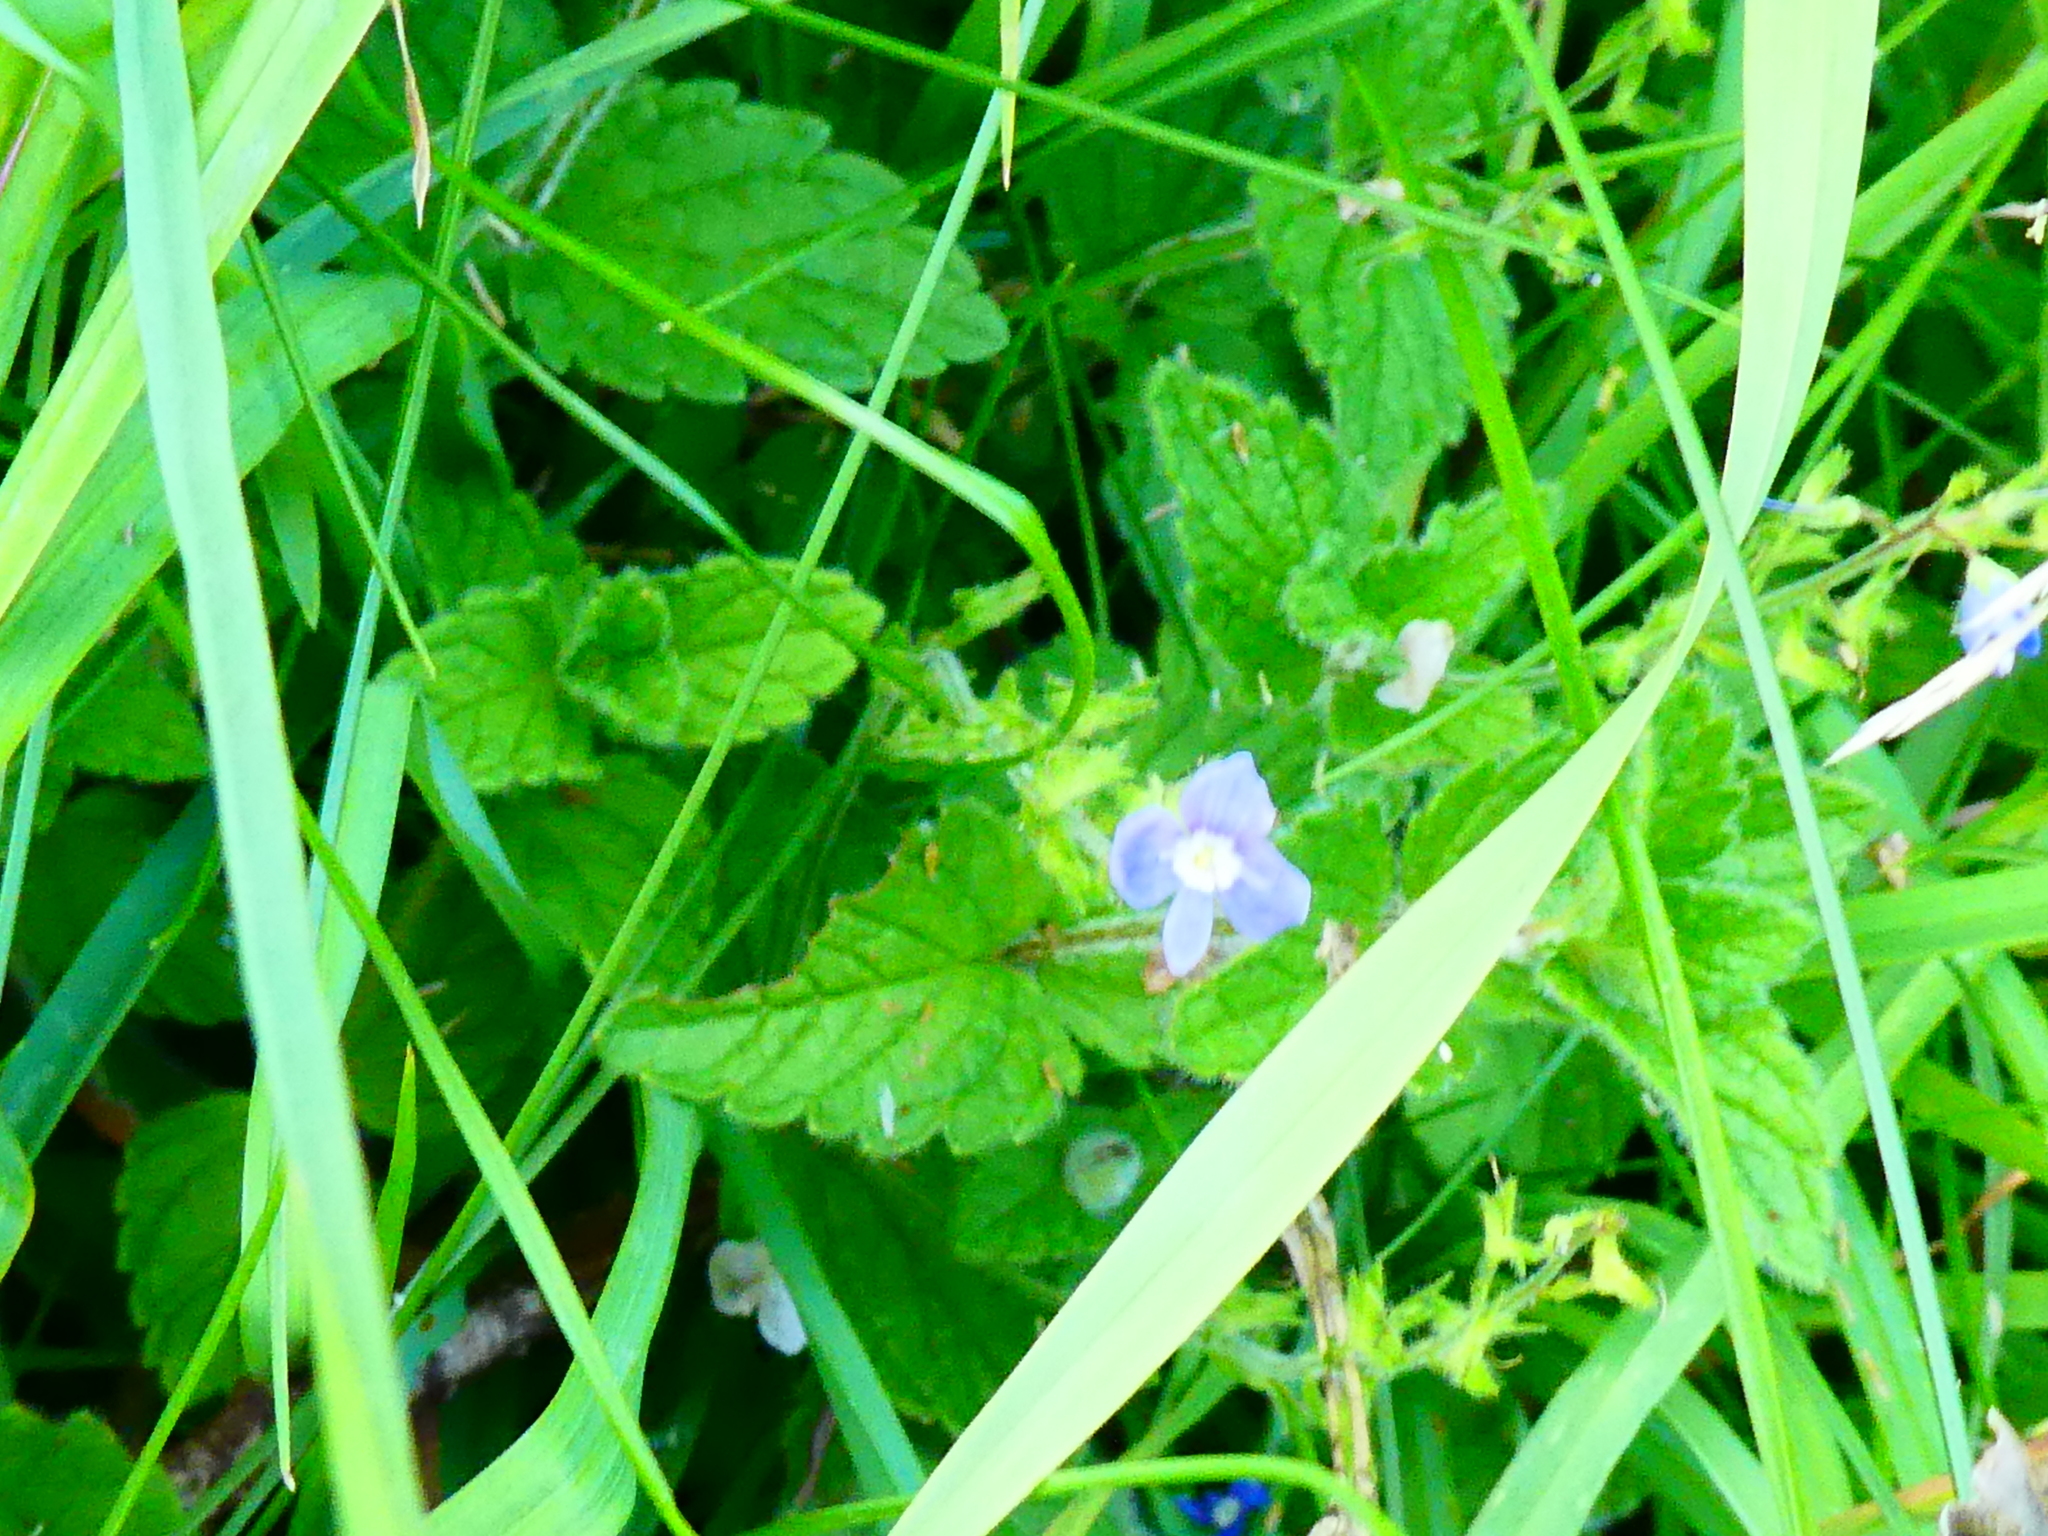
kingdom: Plantae
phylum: Tracheophyta
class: Magnoliopsida
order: Lamiales
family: Plantaginaceae
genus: Veronica
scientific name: Veronica chamaedrys
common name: Germander speedwell
